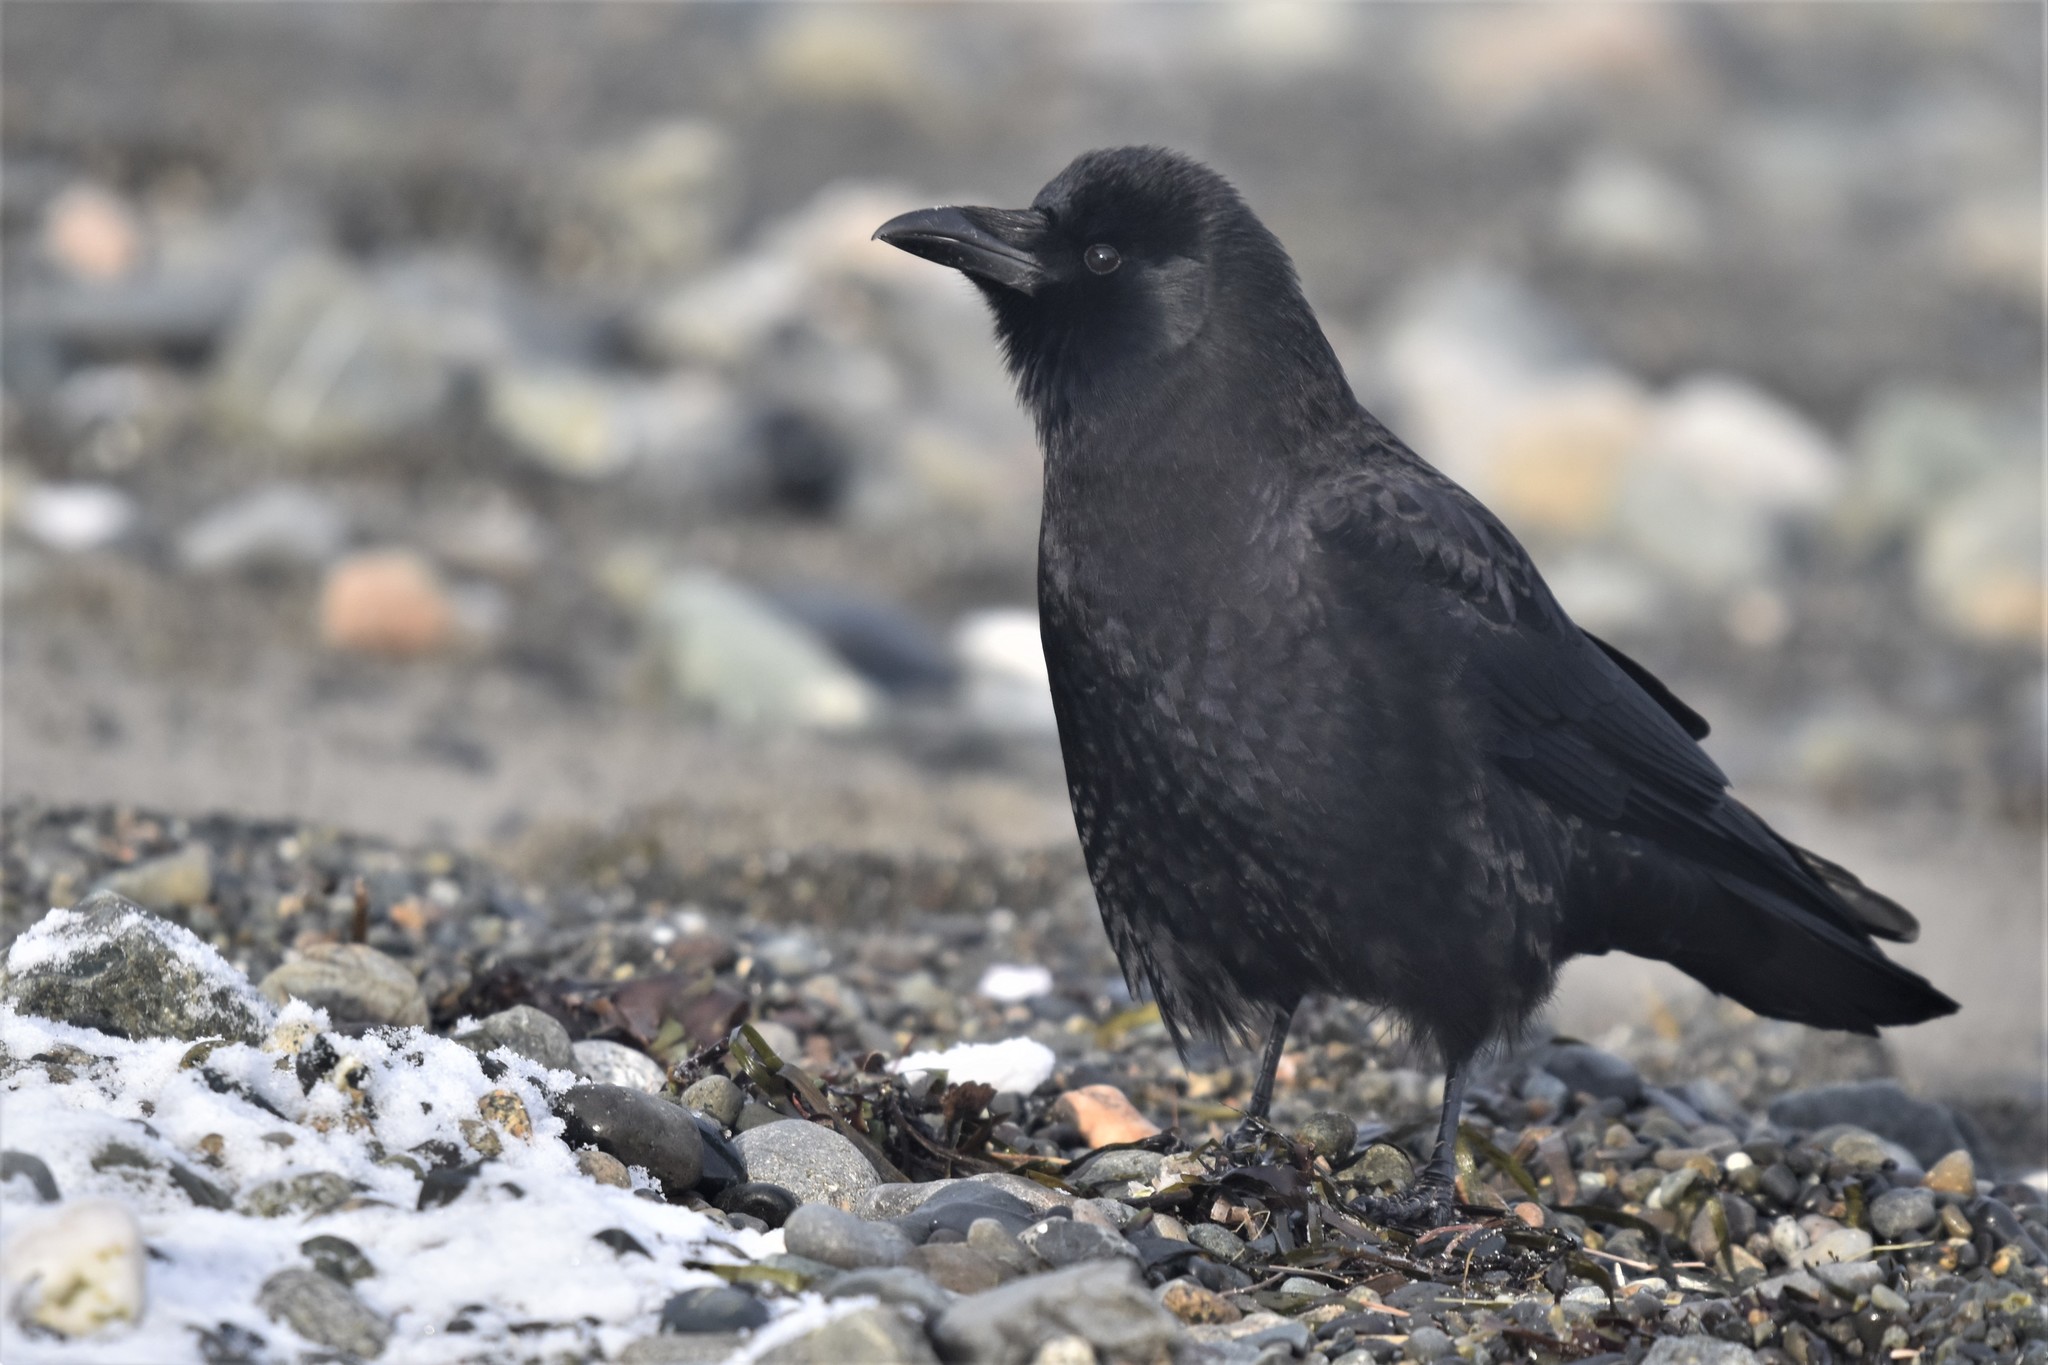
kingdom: Animalia
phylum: Chordata
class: Aves
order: Passeriformes
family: Corvidae
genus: Corvus
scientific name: Corvus brachyrhynchos
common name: American crow
